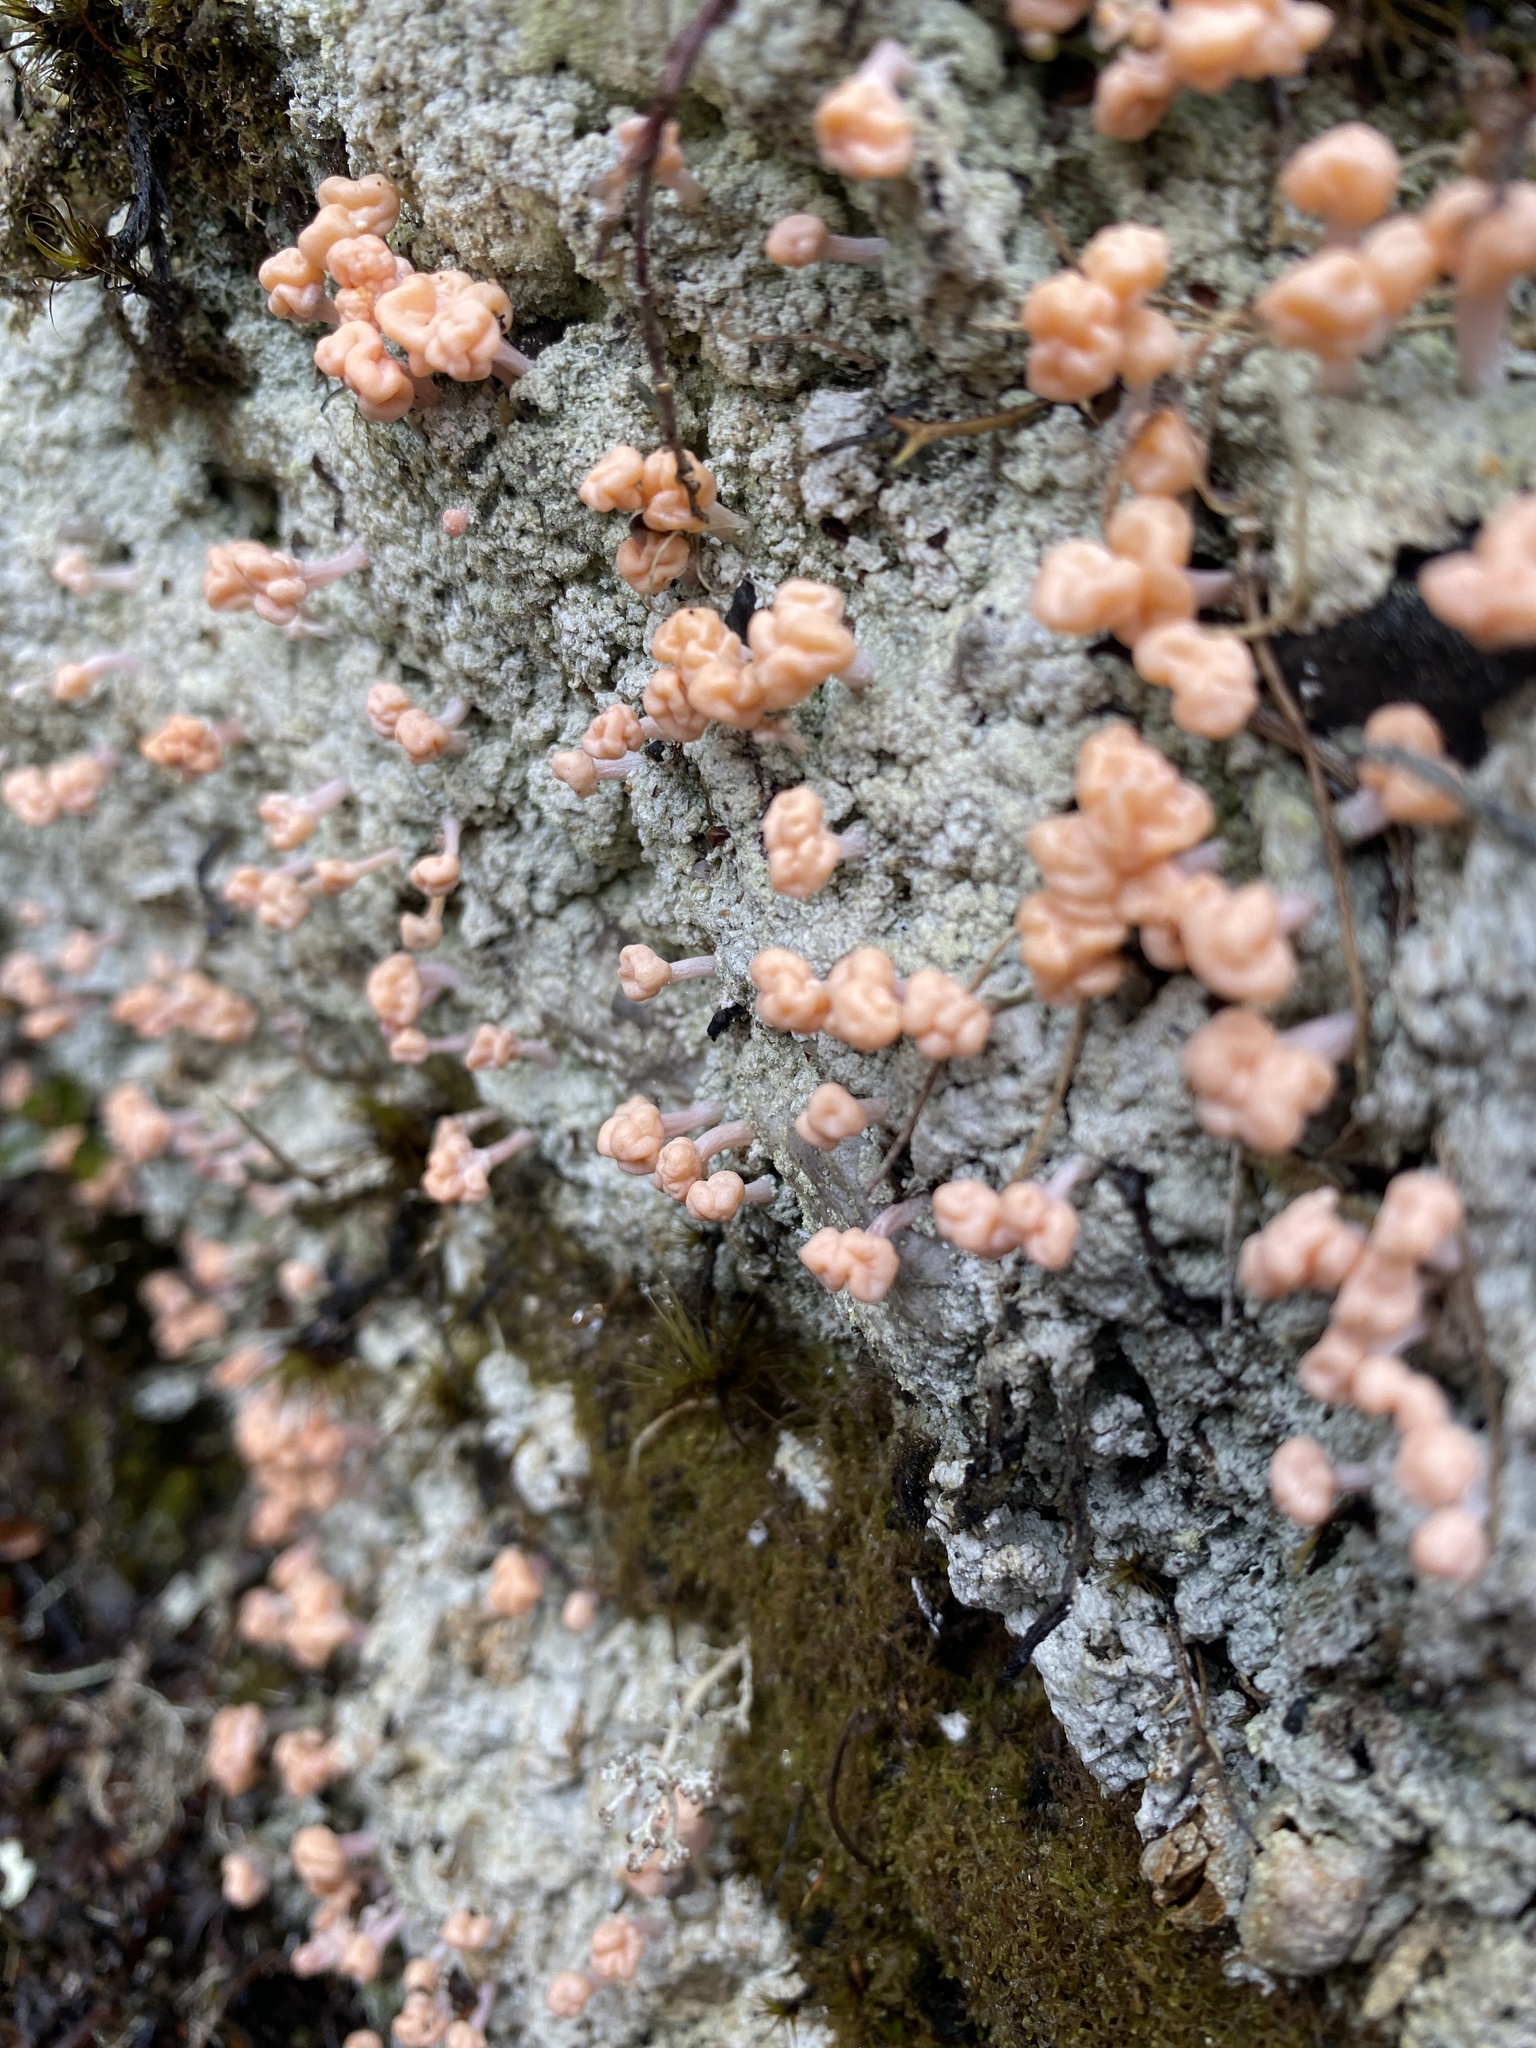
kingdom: Fungi
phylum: Ascomycota
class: Lecanoromycetes
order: Pertusariales
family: Icmadophilaceae
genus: Dibaeis
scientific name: Dibaeis arcuata
